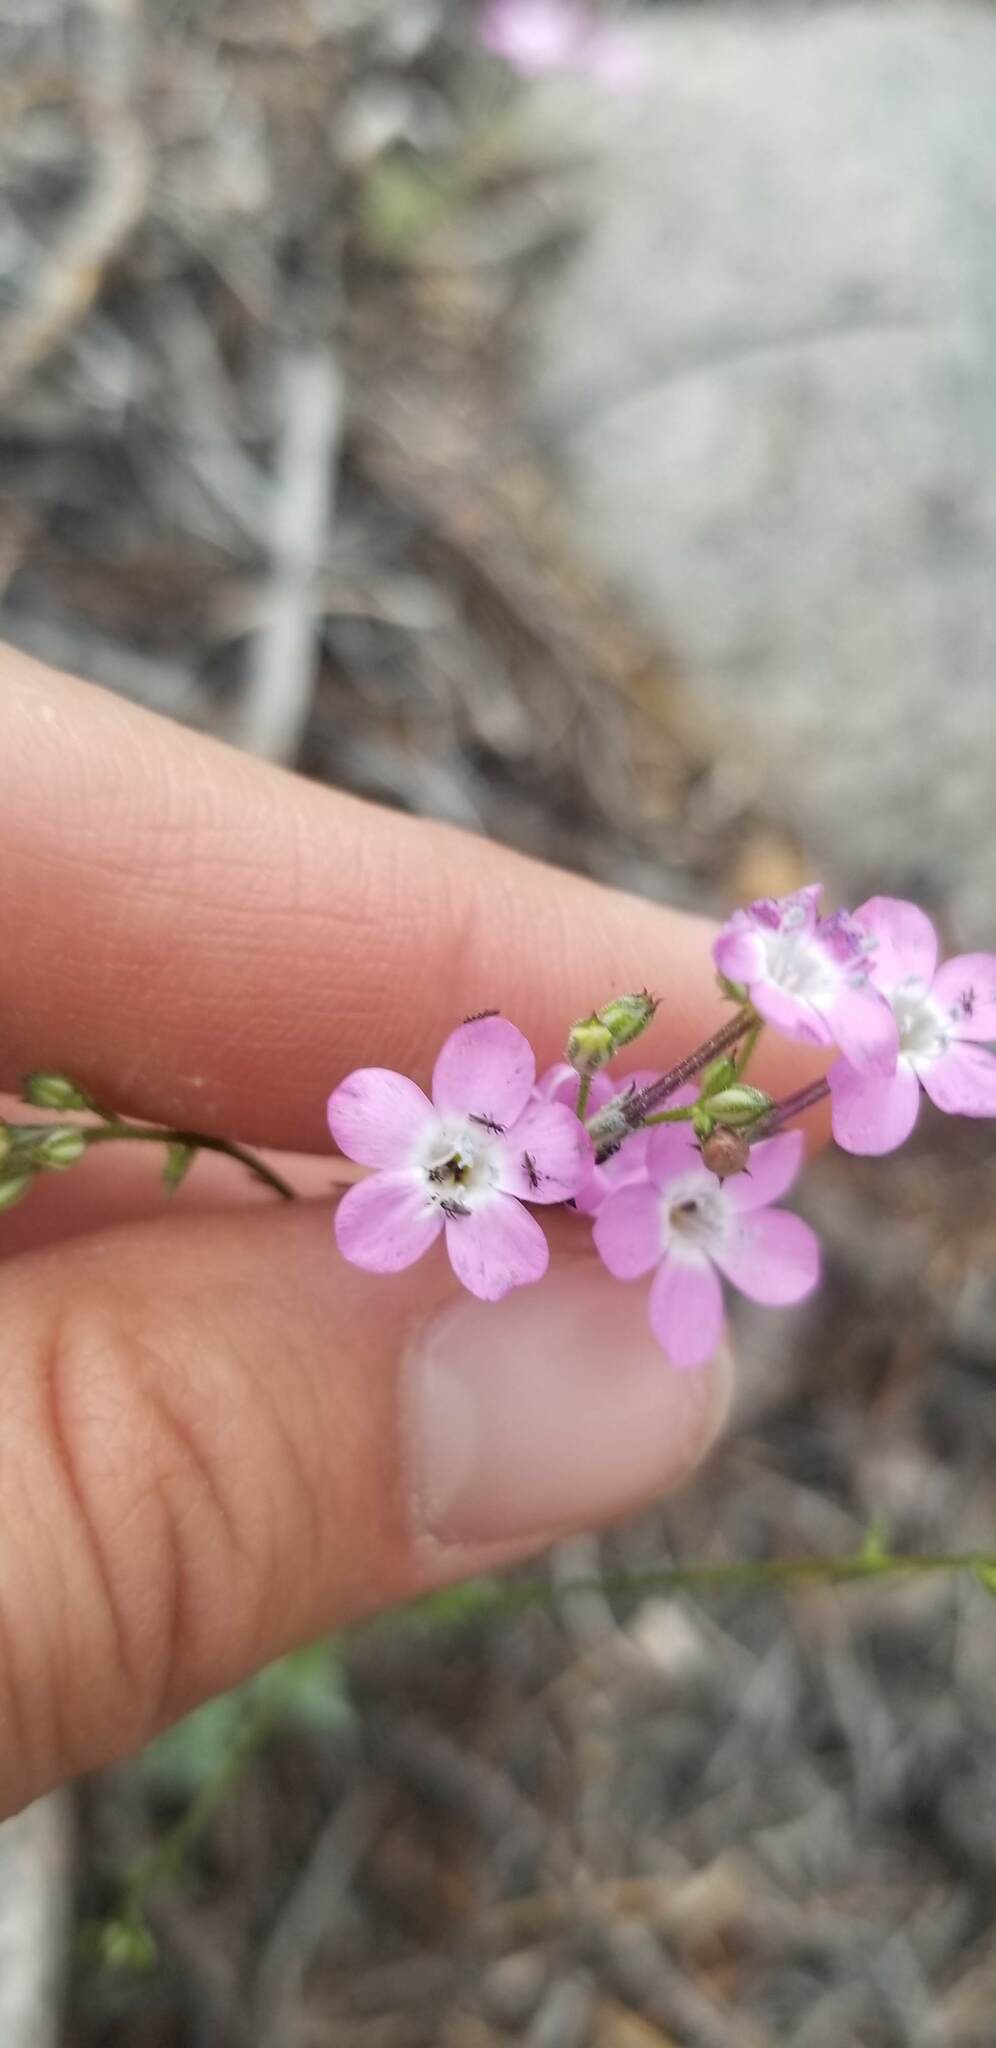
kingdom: Plantae
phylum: Tracheophyta
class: Magnoliopsida
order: Ericales
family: Polemoniaceae
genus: Gilia
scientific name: Gilia leptantha
